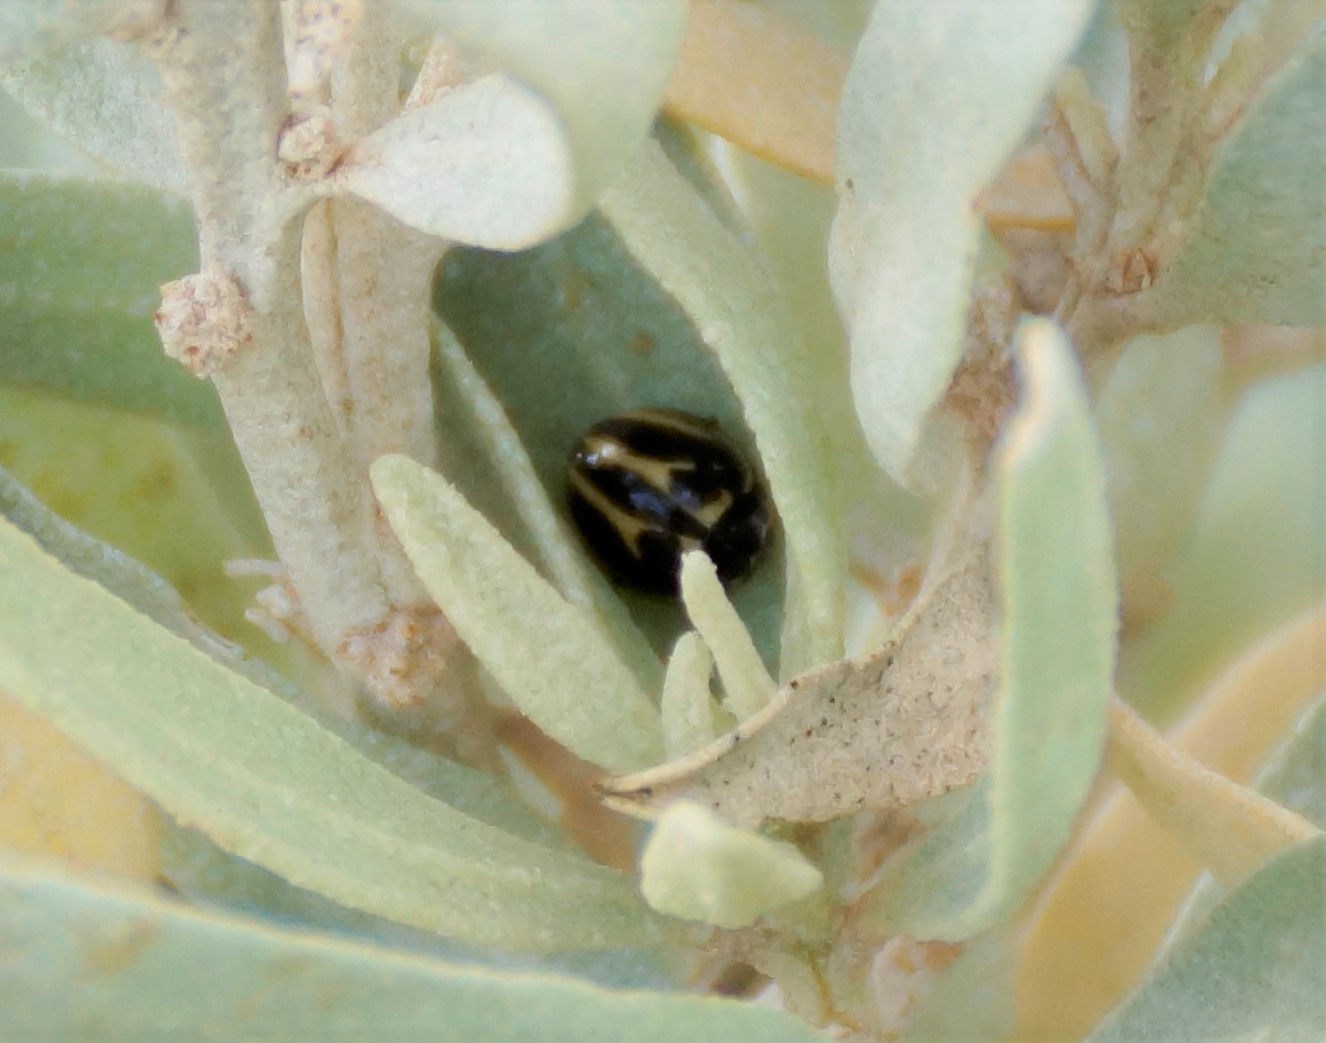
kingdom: Animalia
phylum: Arthropoda
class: Insecta
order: Coleoptera
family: Coccinellidae
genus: Micraspis
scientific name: Micraspis
